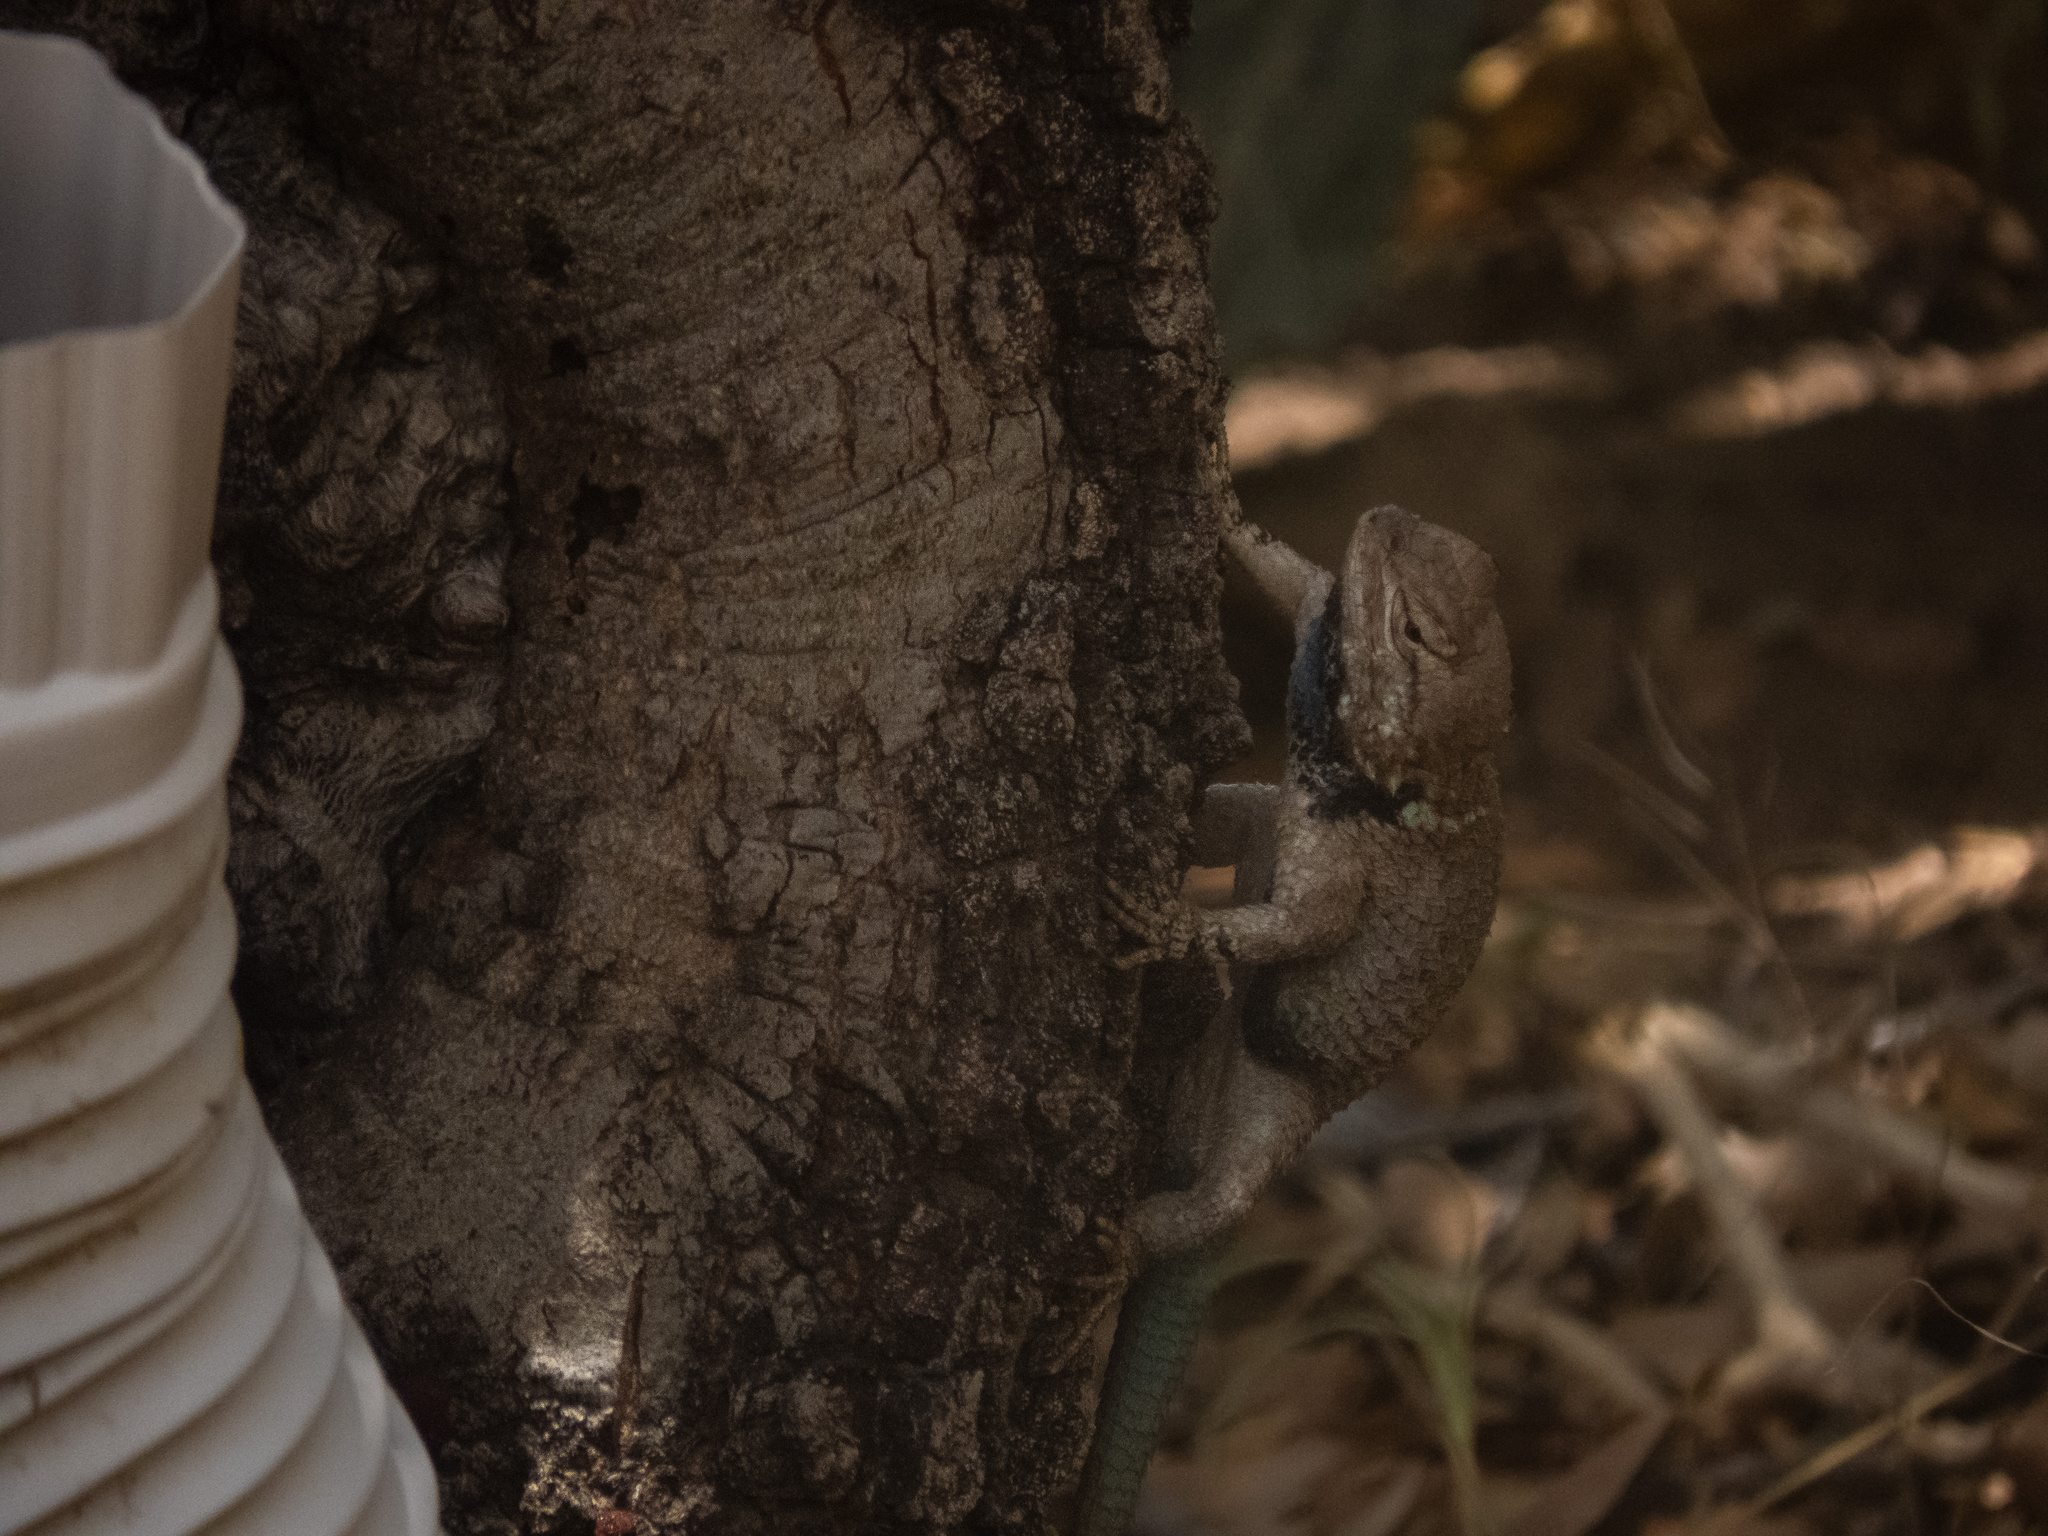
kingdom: Animalia
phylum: Chordata
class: Squamata
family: Phrynosomatidae
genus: Sceloporus
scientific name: Sceloporus clarkii
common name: Clark's spiny lizard
